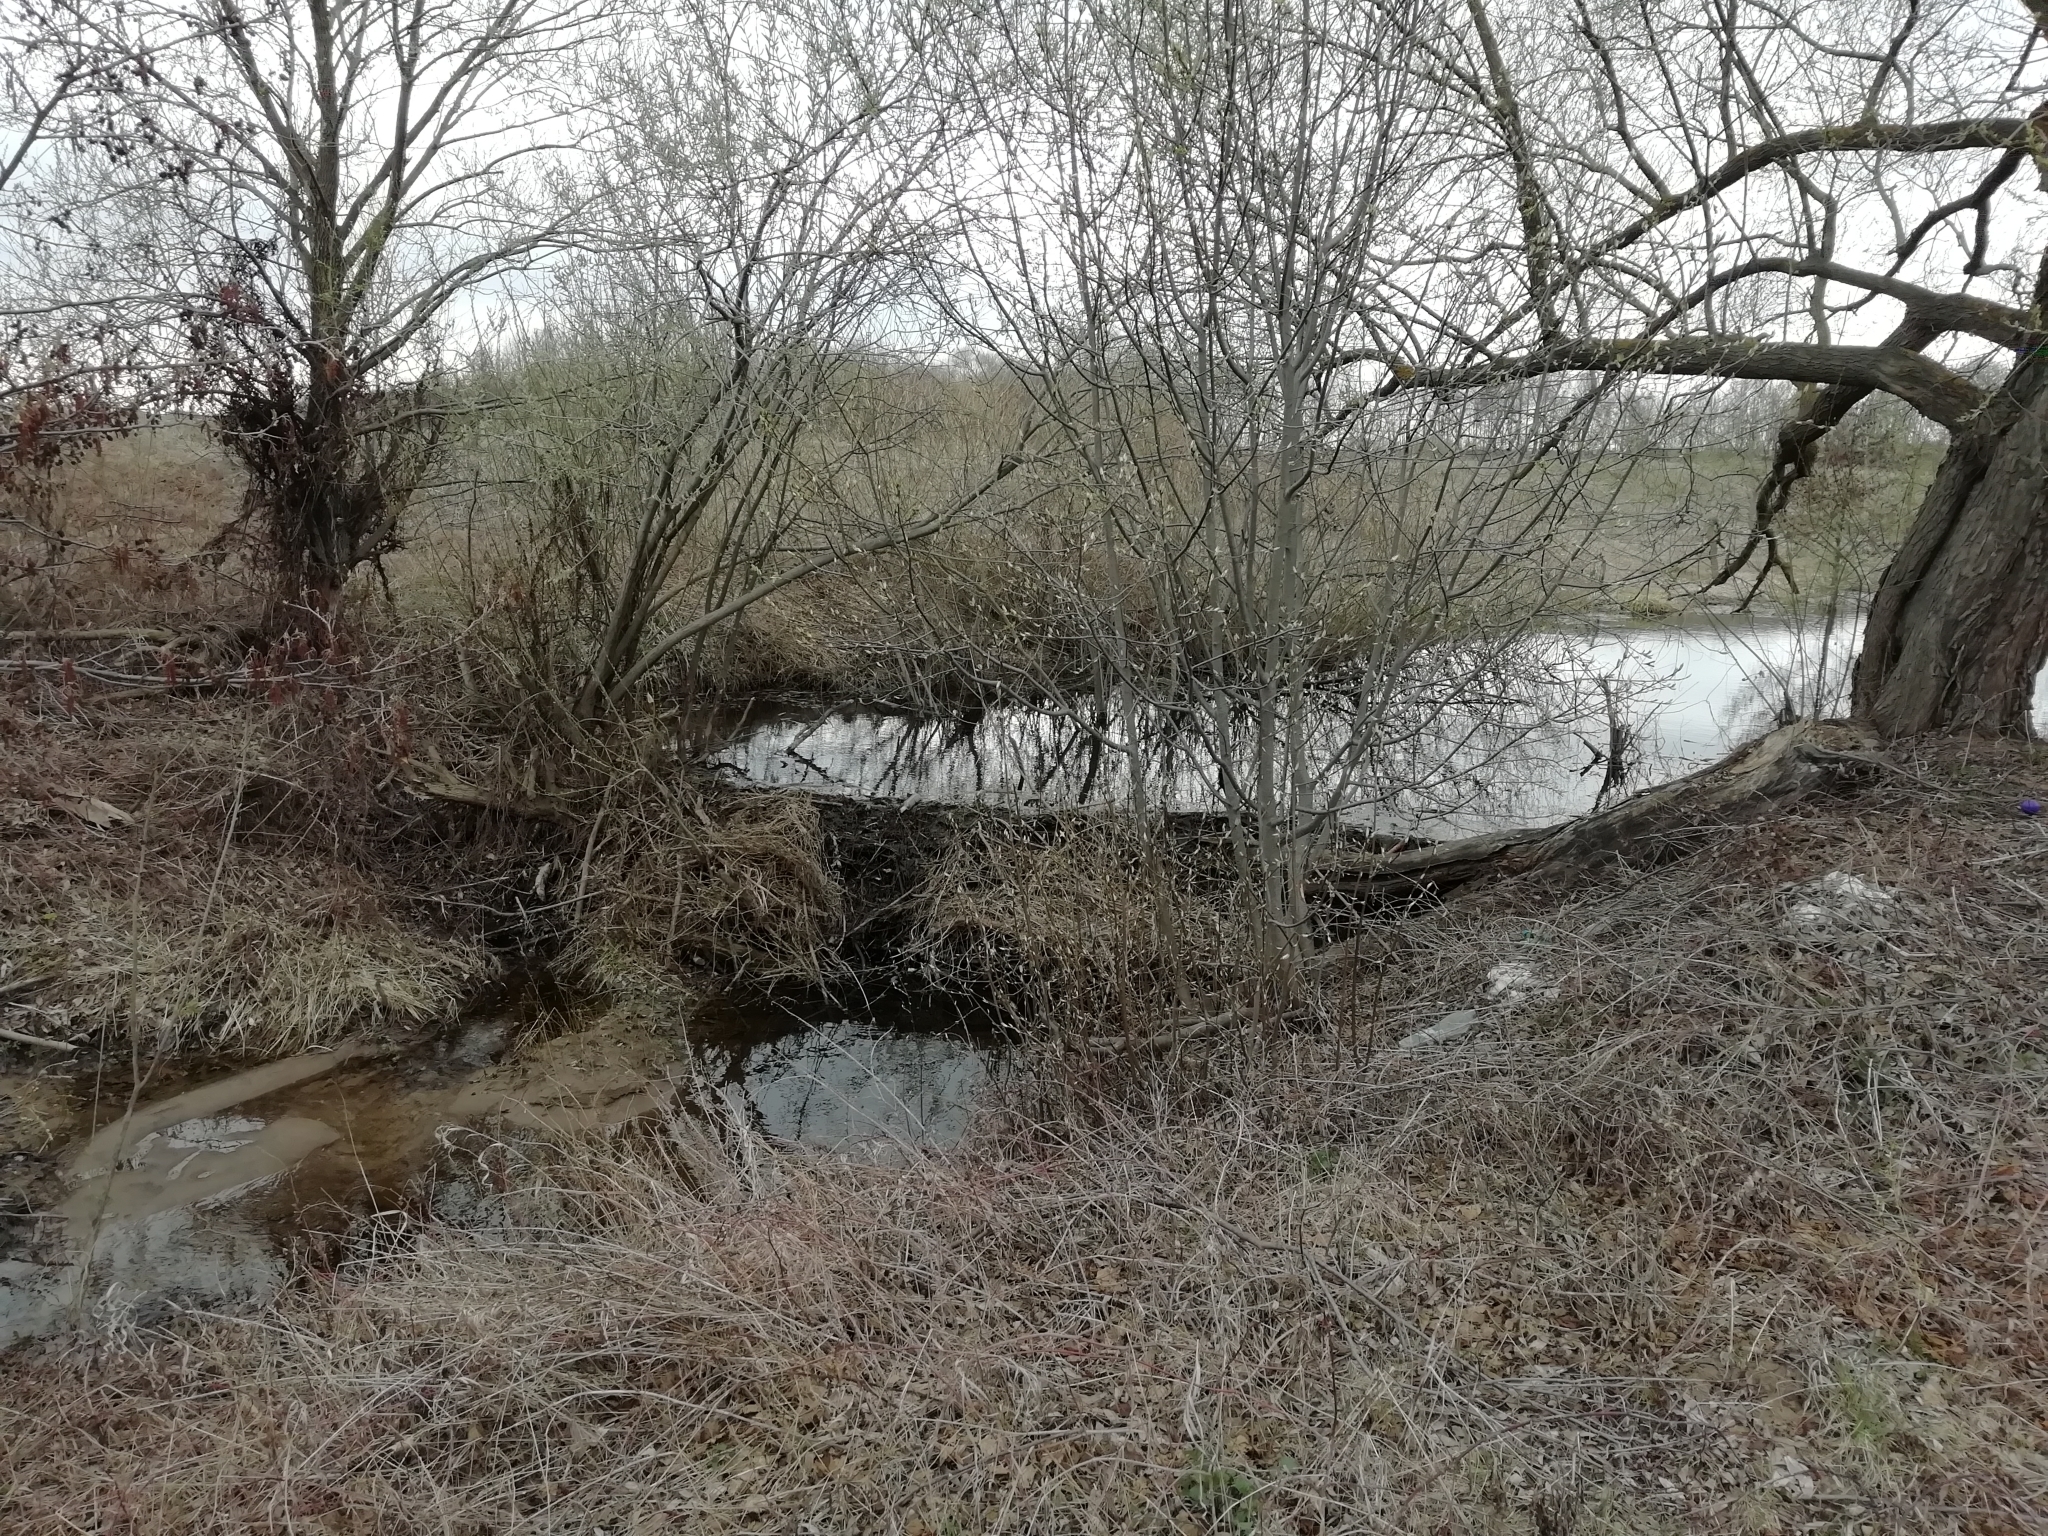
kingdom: Animalia
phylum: Chordata
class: Squamata
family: Colubridae
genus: Natrix
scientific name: Natrix natrix
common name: Grass snake
